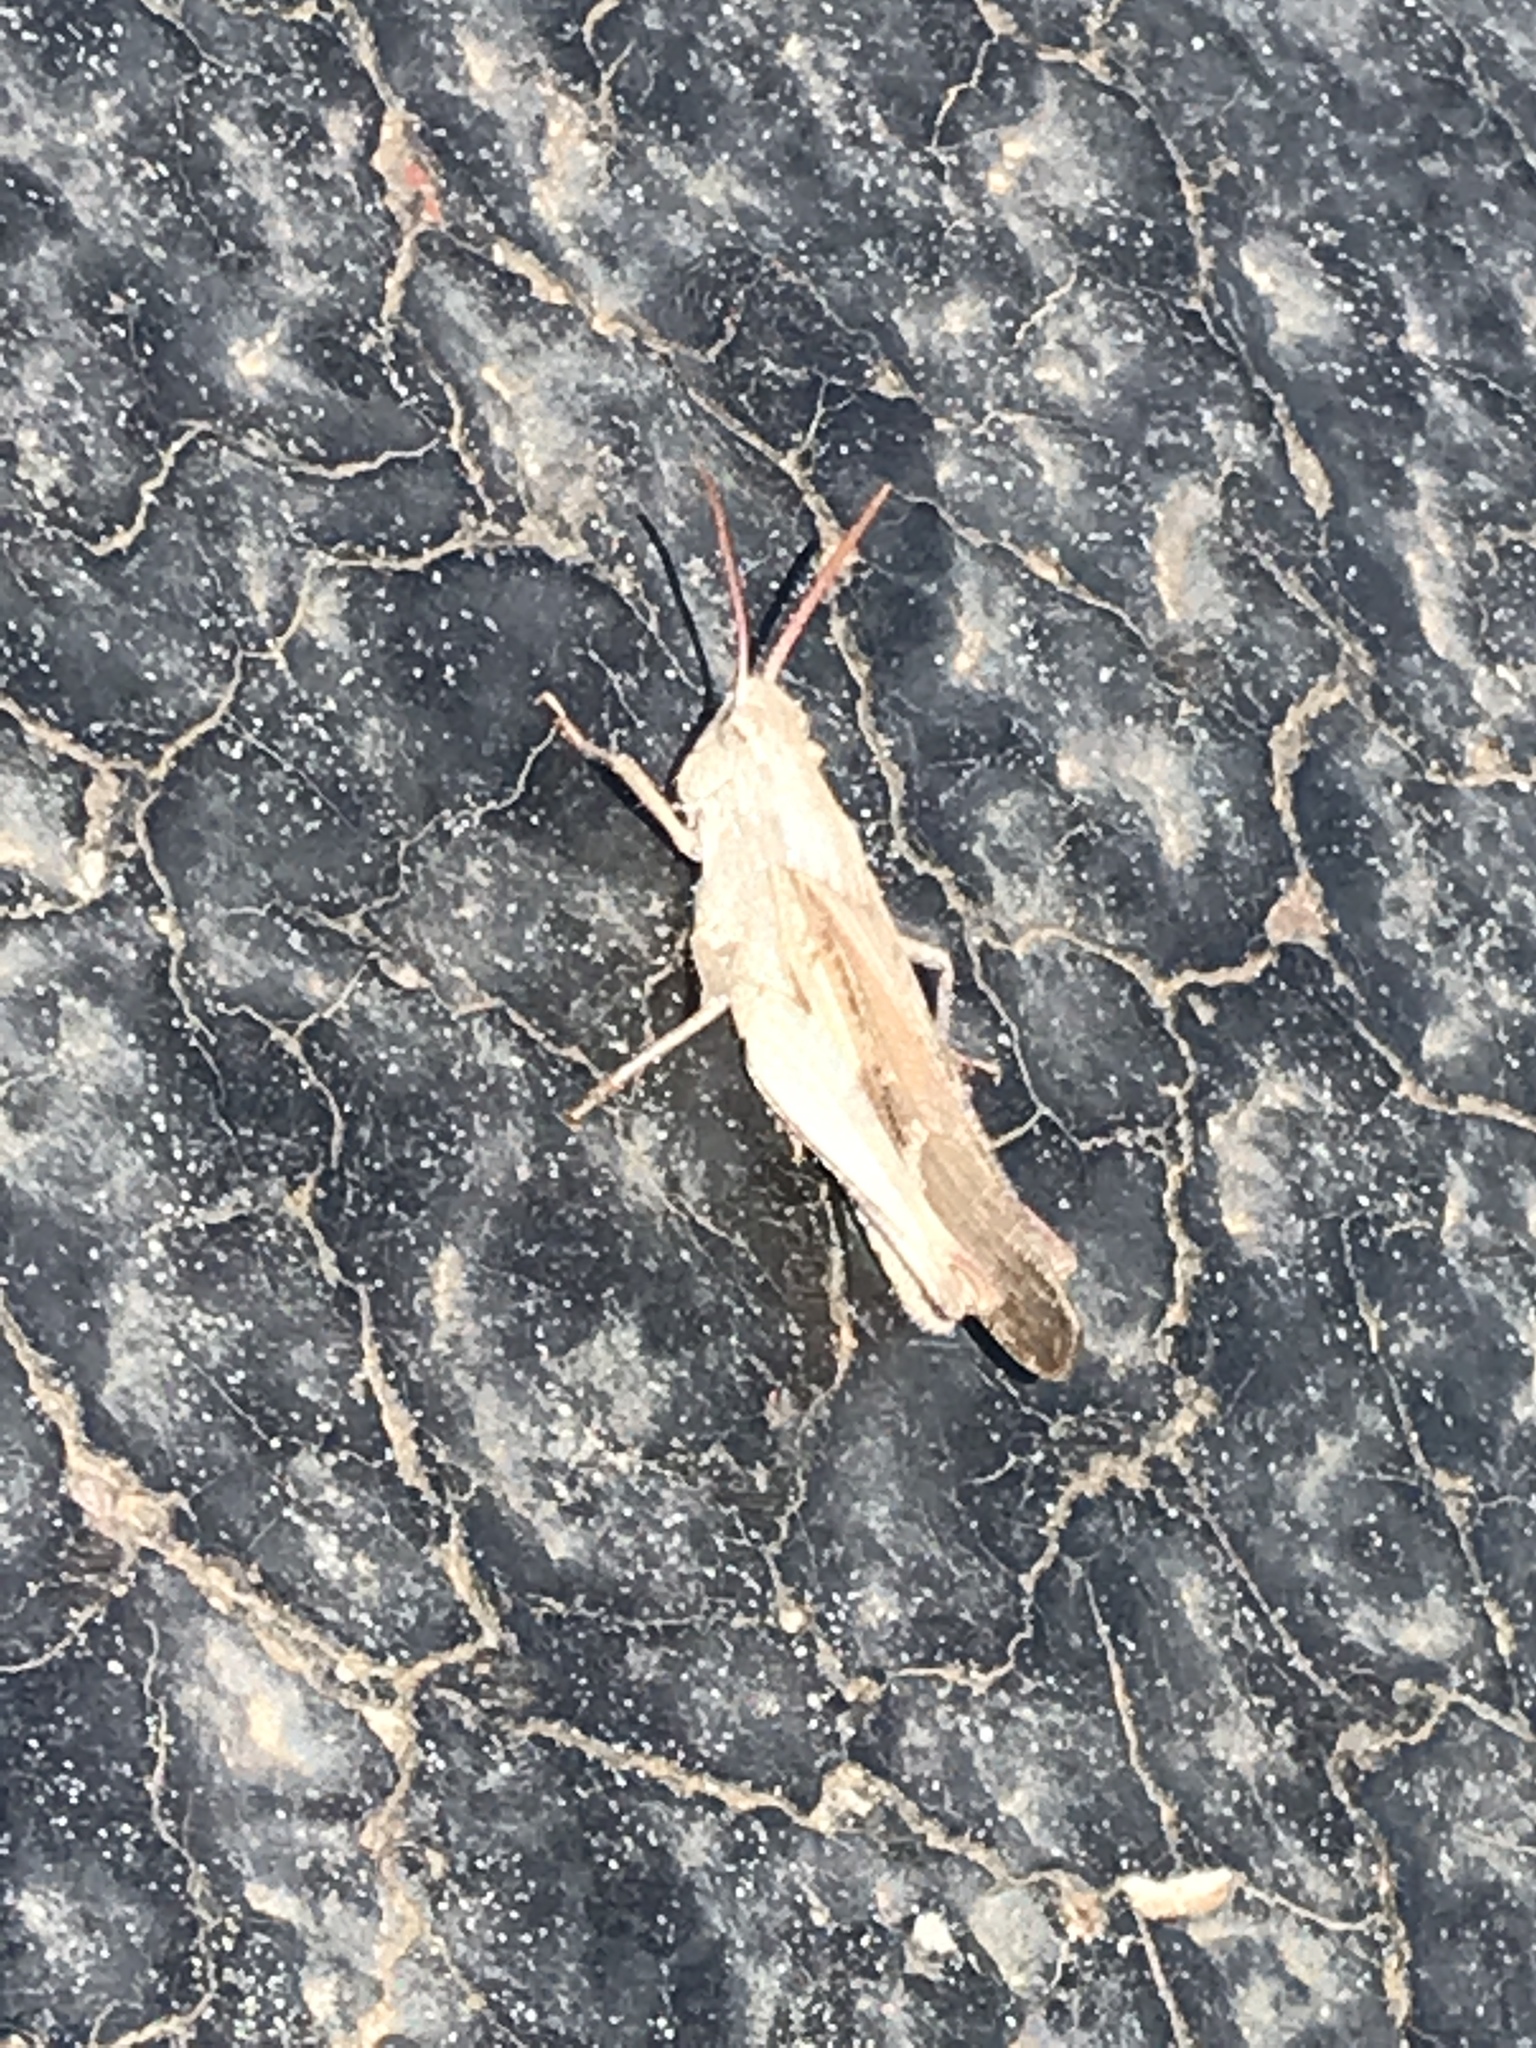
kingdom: Animalia
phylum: Arthropoda
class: Insecta
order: Orthoptera
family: Acrididae
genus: Chortophaga
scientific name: Chortophaga viridifasciata
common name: Green-striped grasshopper
